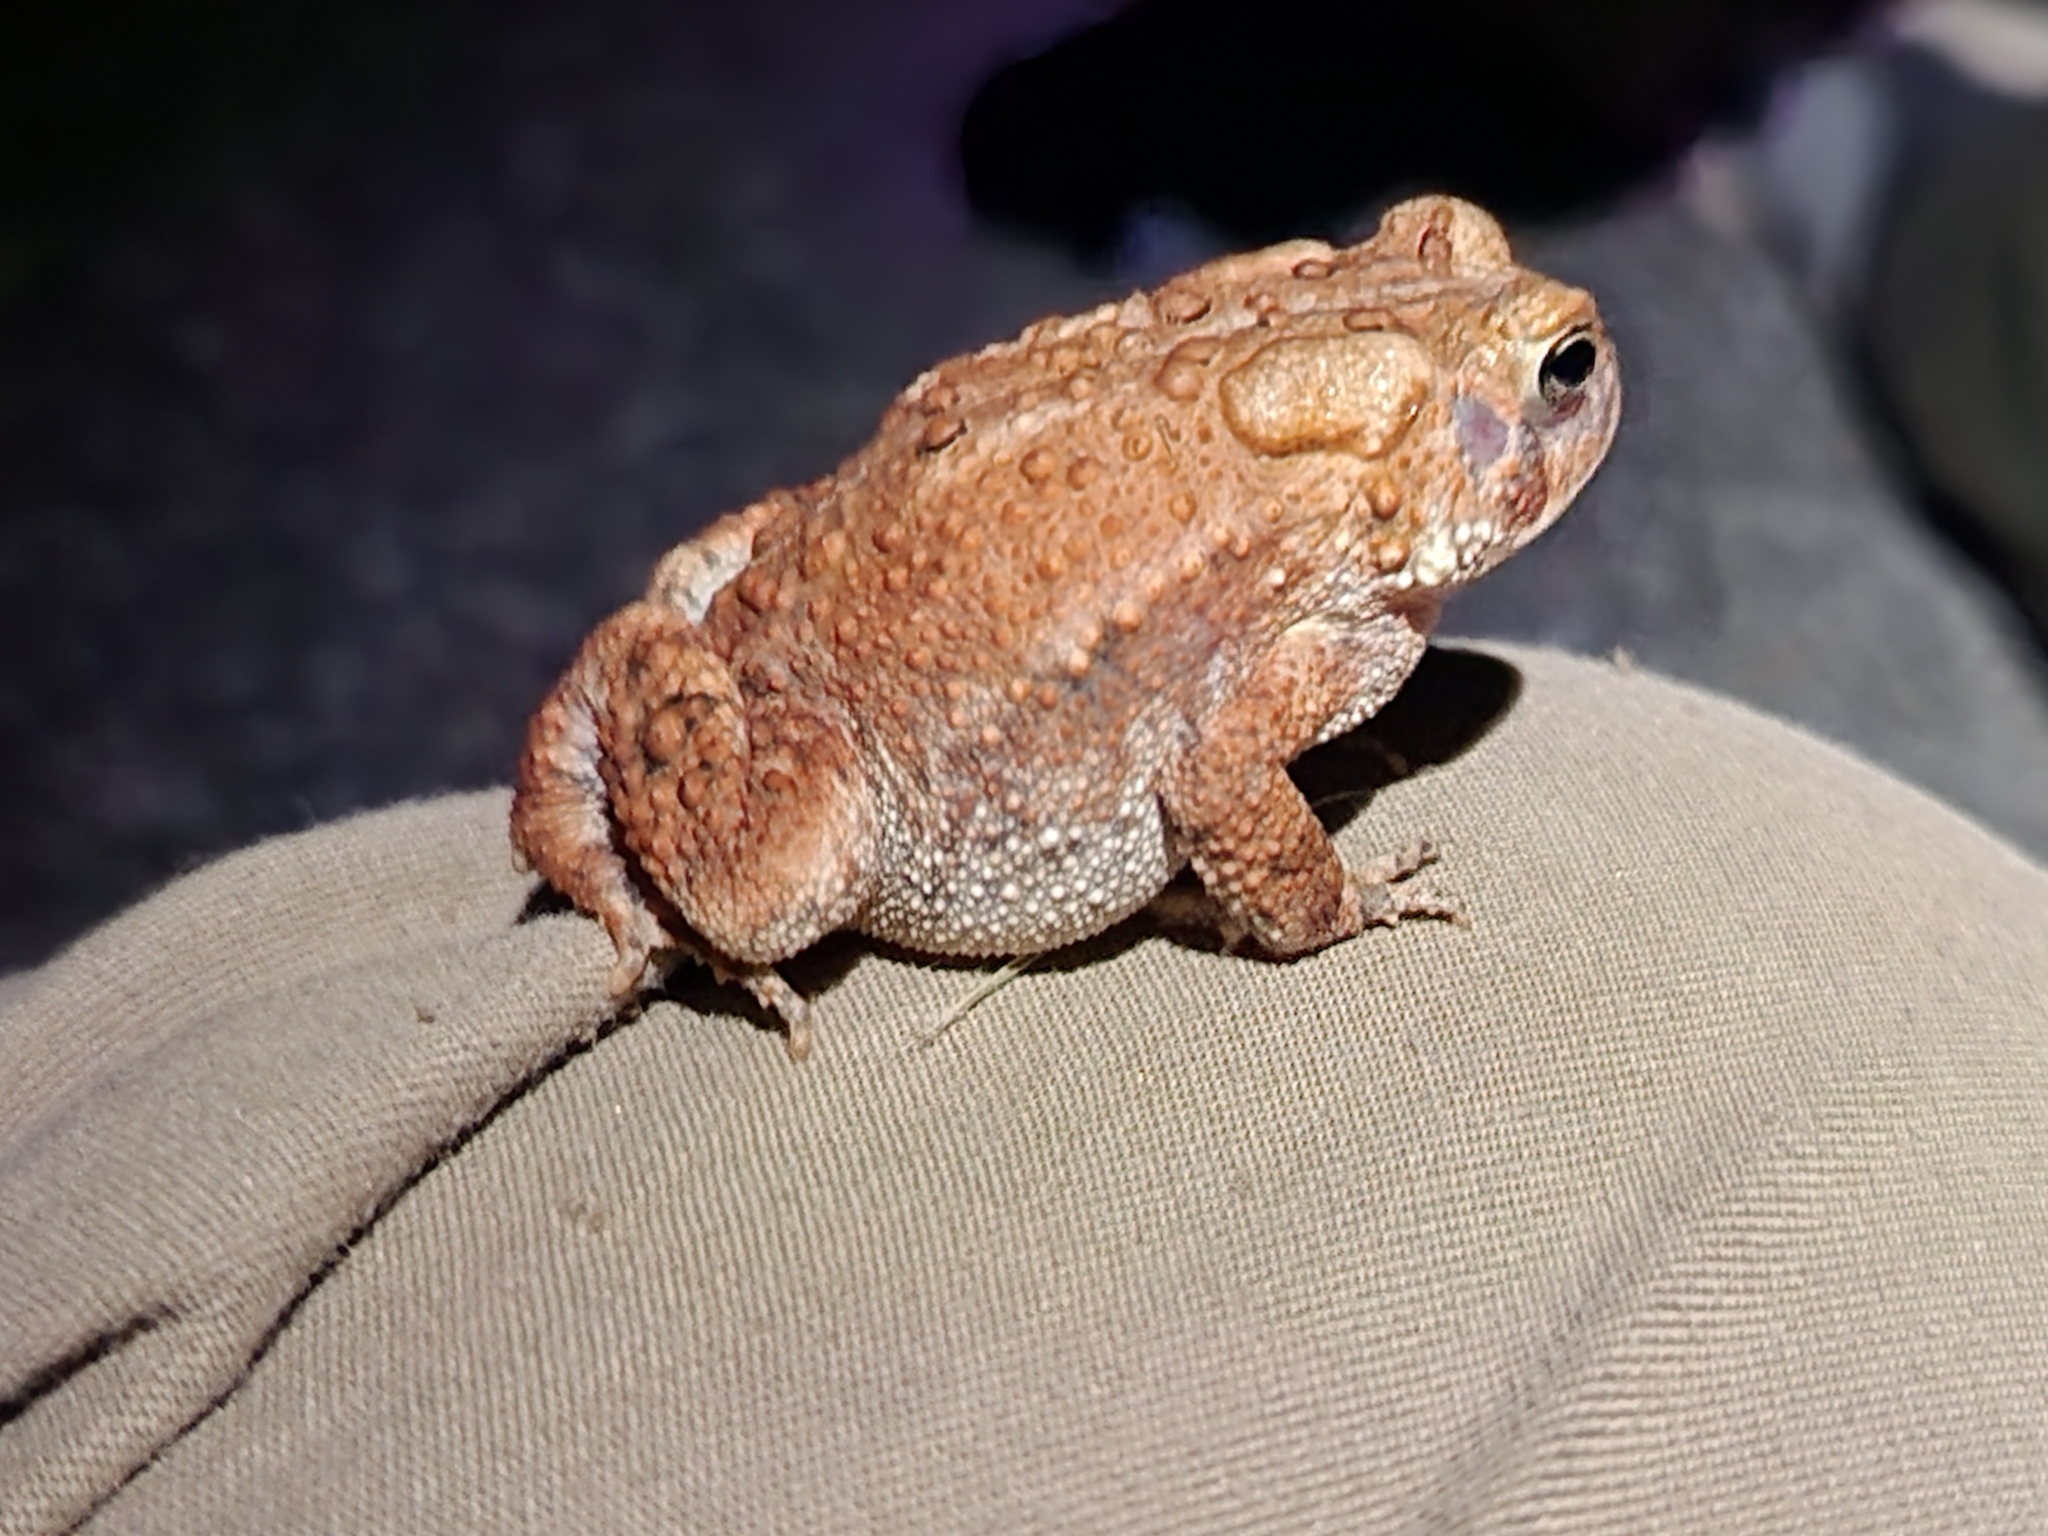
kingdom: Animalia
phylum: Chordata
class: Amphibia
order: Anura
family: Bufonidae
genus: Anaxyrus
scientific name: Anaxyrus americanus
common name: American toad
